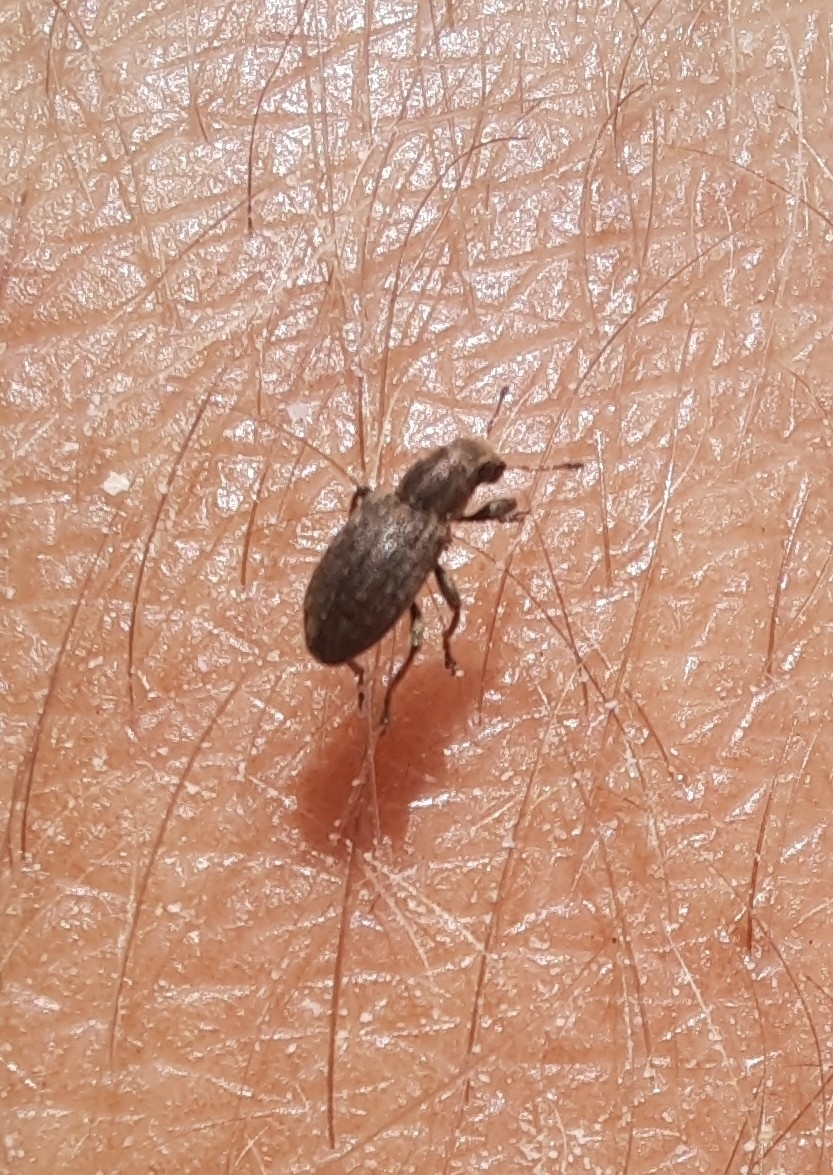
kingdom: Animalia
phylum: Arthropoda
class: Insecta
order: Coleoptera
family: Curculionidae
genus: Sitona
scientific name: Sitona obsoletus
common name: Weevil
